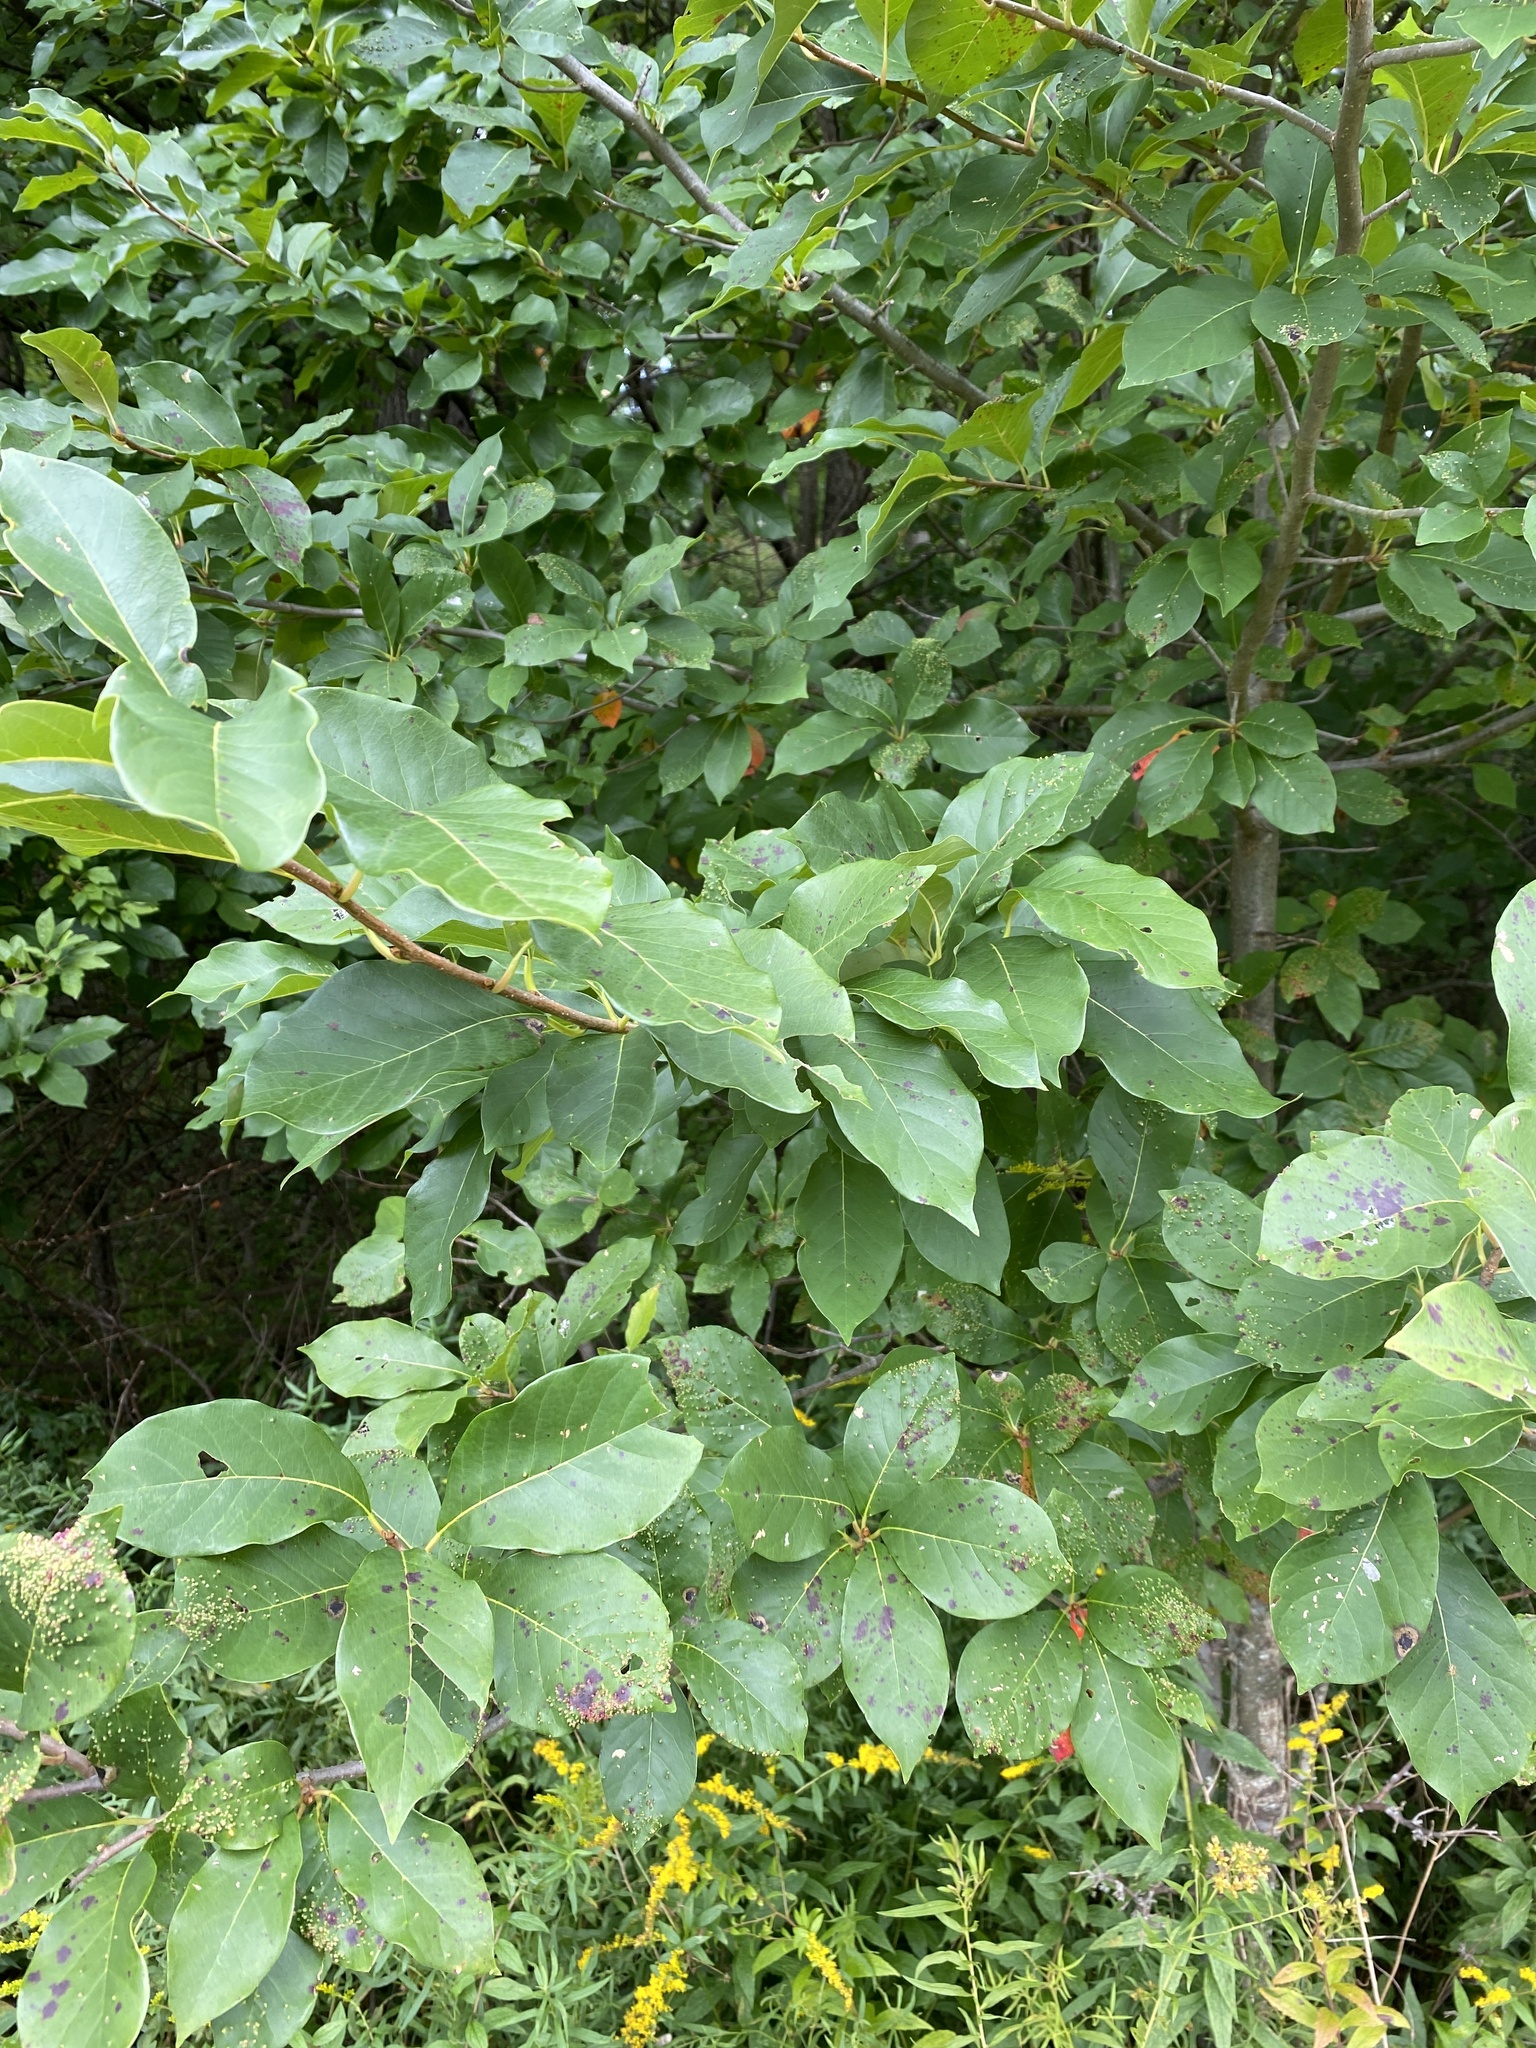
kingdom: Plantae
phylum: Tracheophyta
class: Magnoliopsida
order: Cornales
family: Nyssaceae
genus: Nyssa
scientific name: Nyssa sylvatica
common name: Black tupelo
